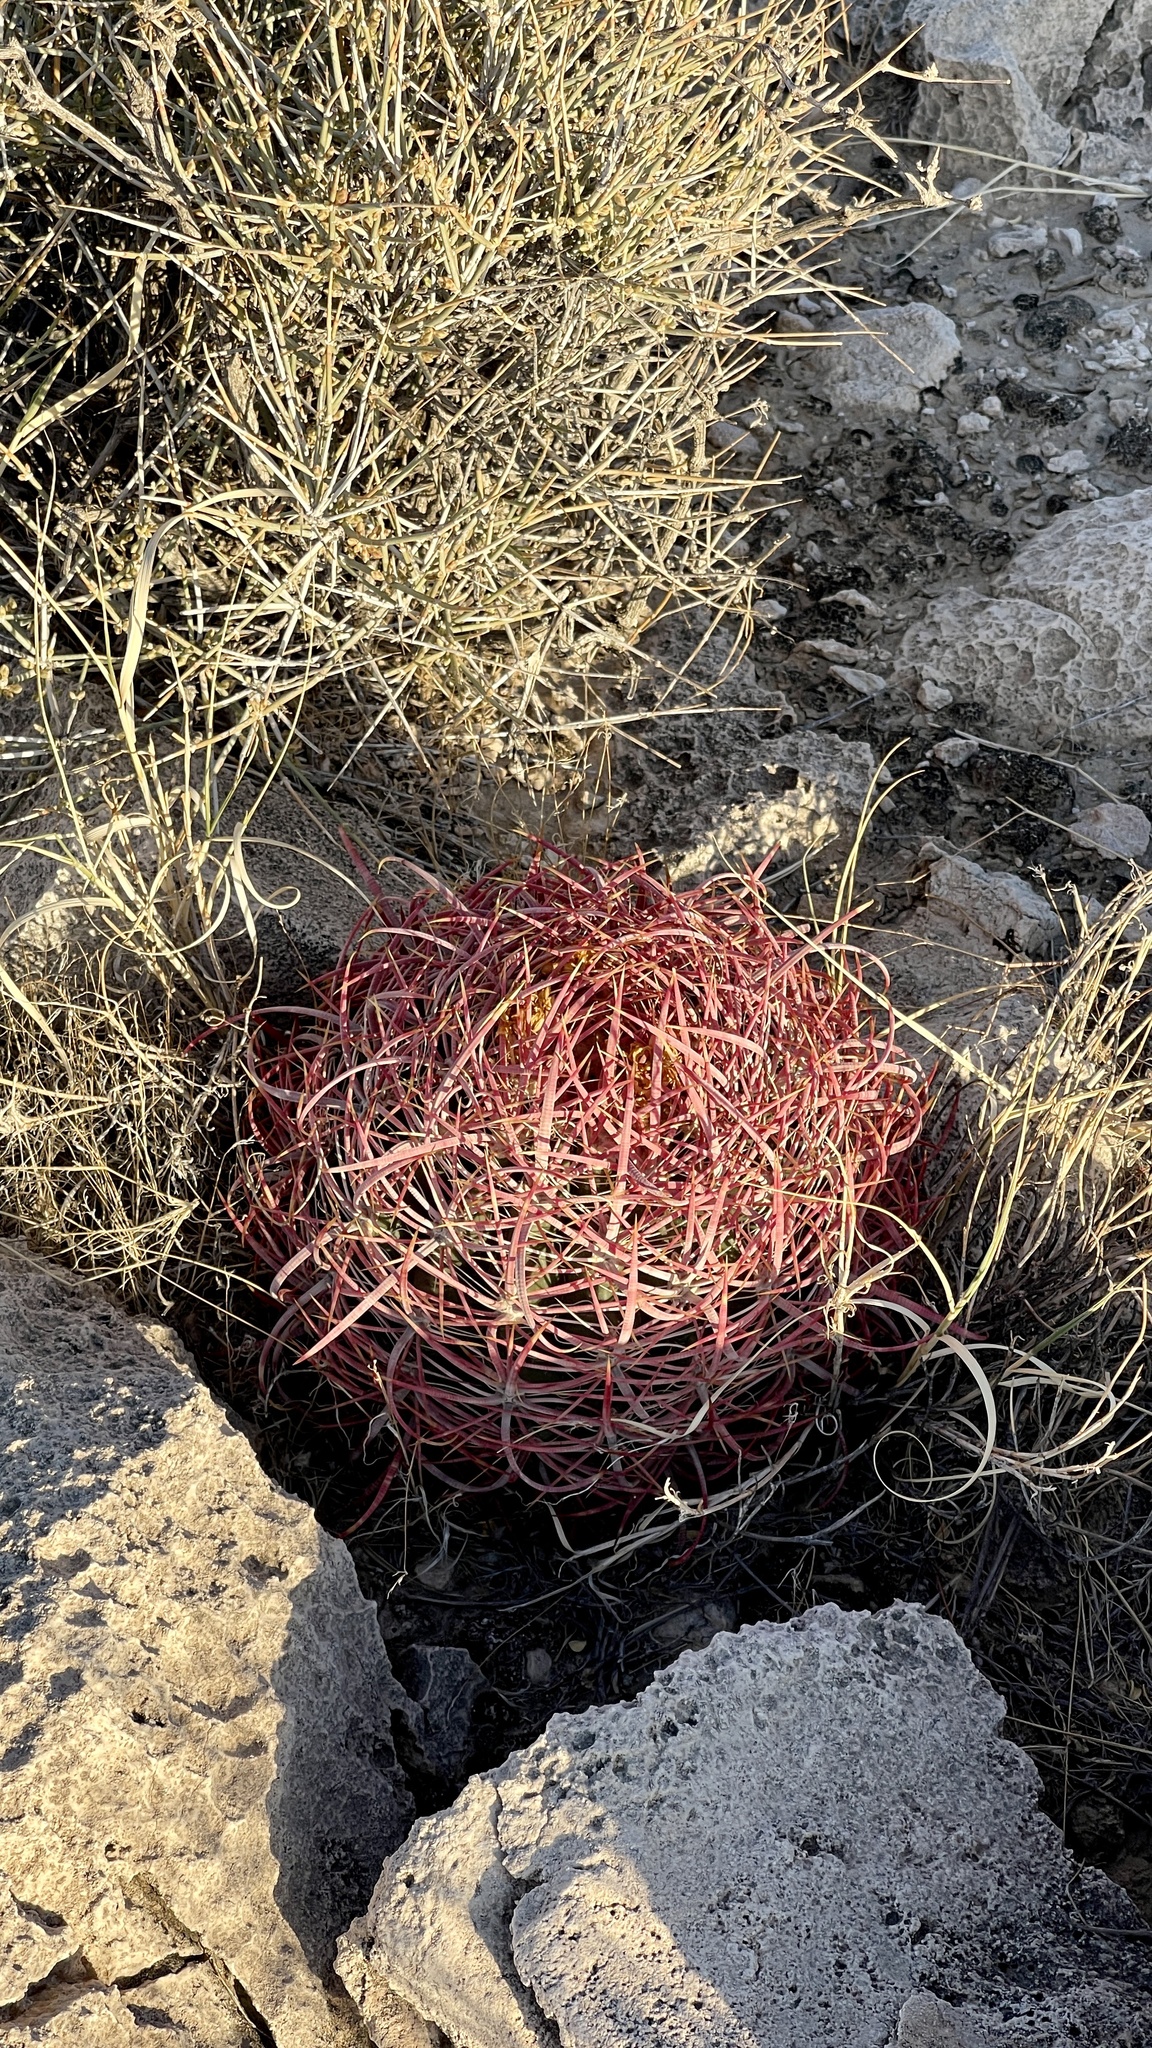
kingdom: Plantae
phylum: Tracheophyta
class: Magnoliopsida
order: Caryophyllales
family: Cactaceae
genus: Ferocactus
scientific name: Ferocactus cylindraceus
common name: California barrel cactus
